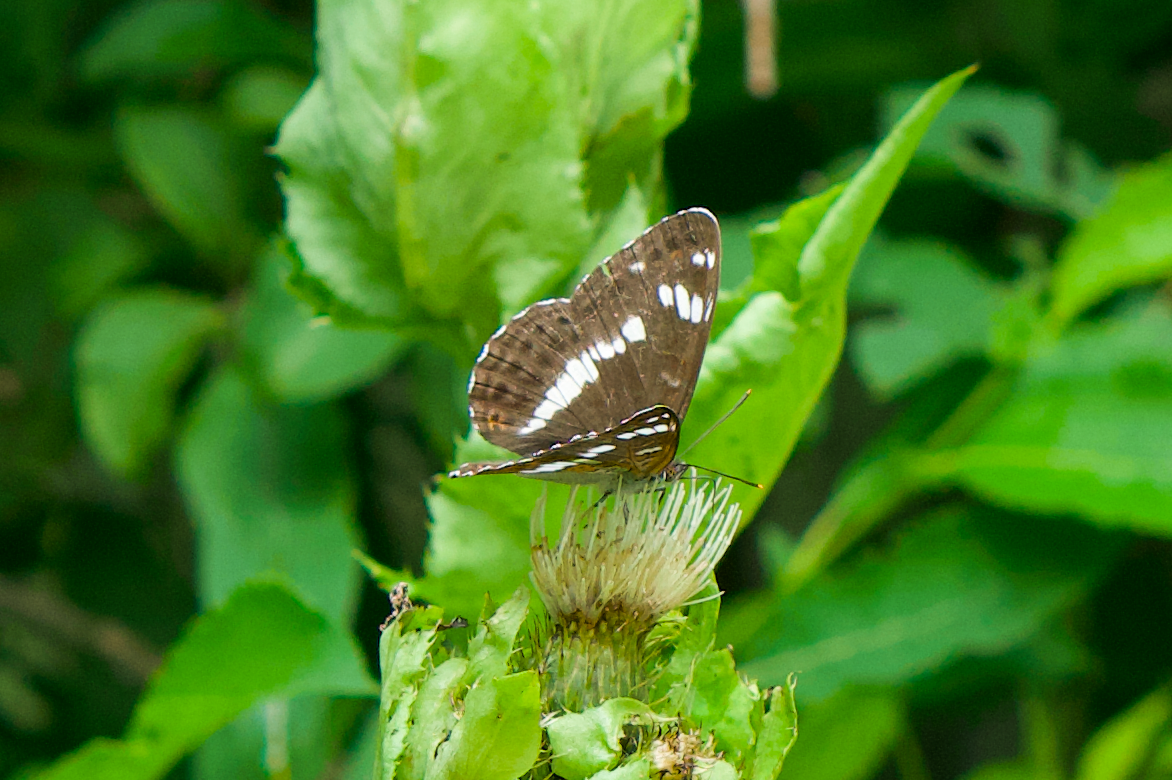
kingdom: Animalia
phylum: Arthropoda
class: Insecta
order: Lepidoptera
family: Nymphalidae
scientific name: Nymphalidae
